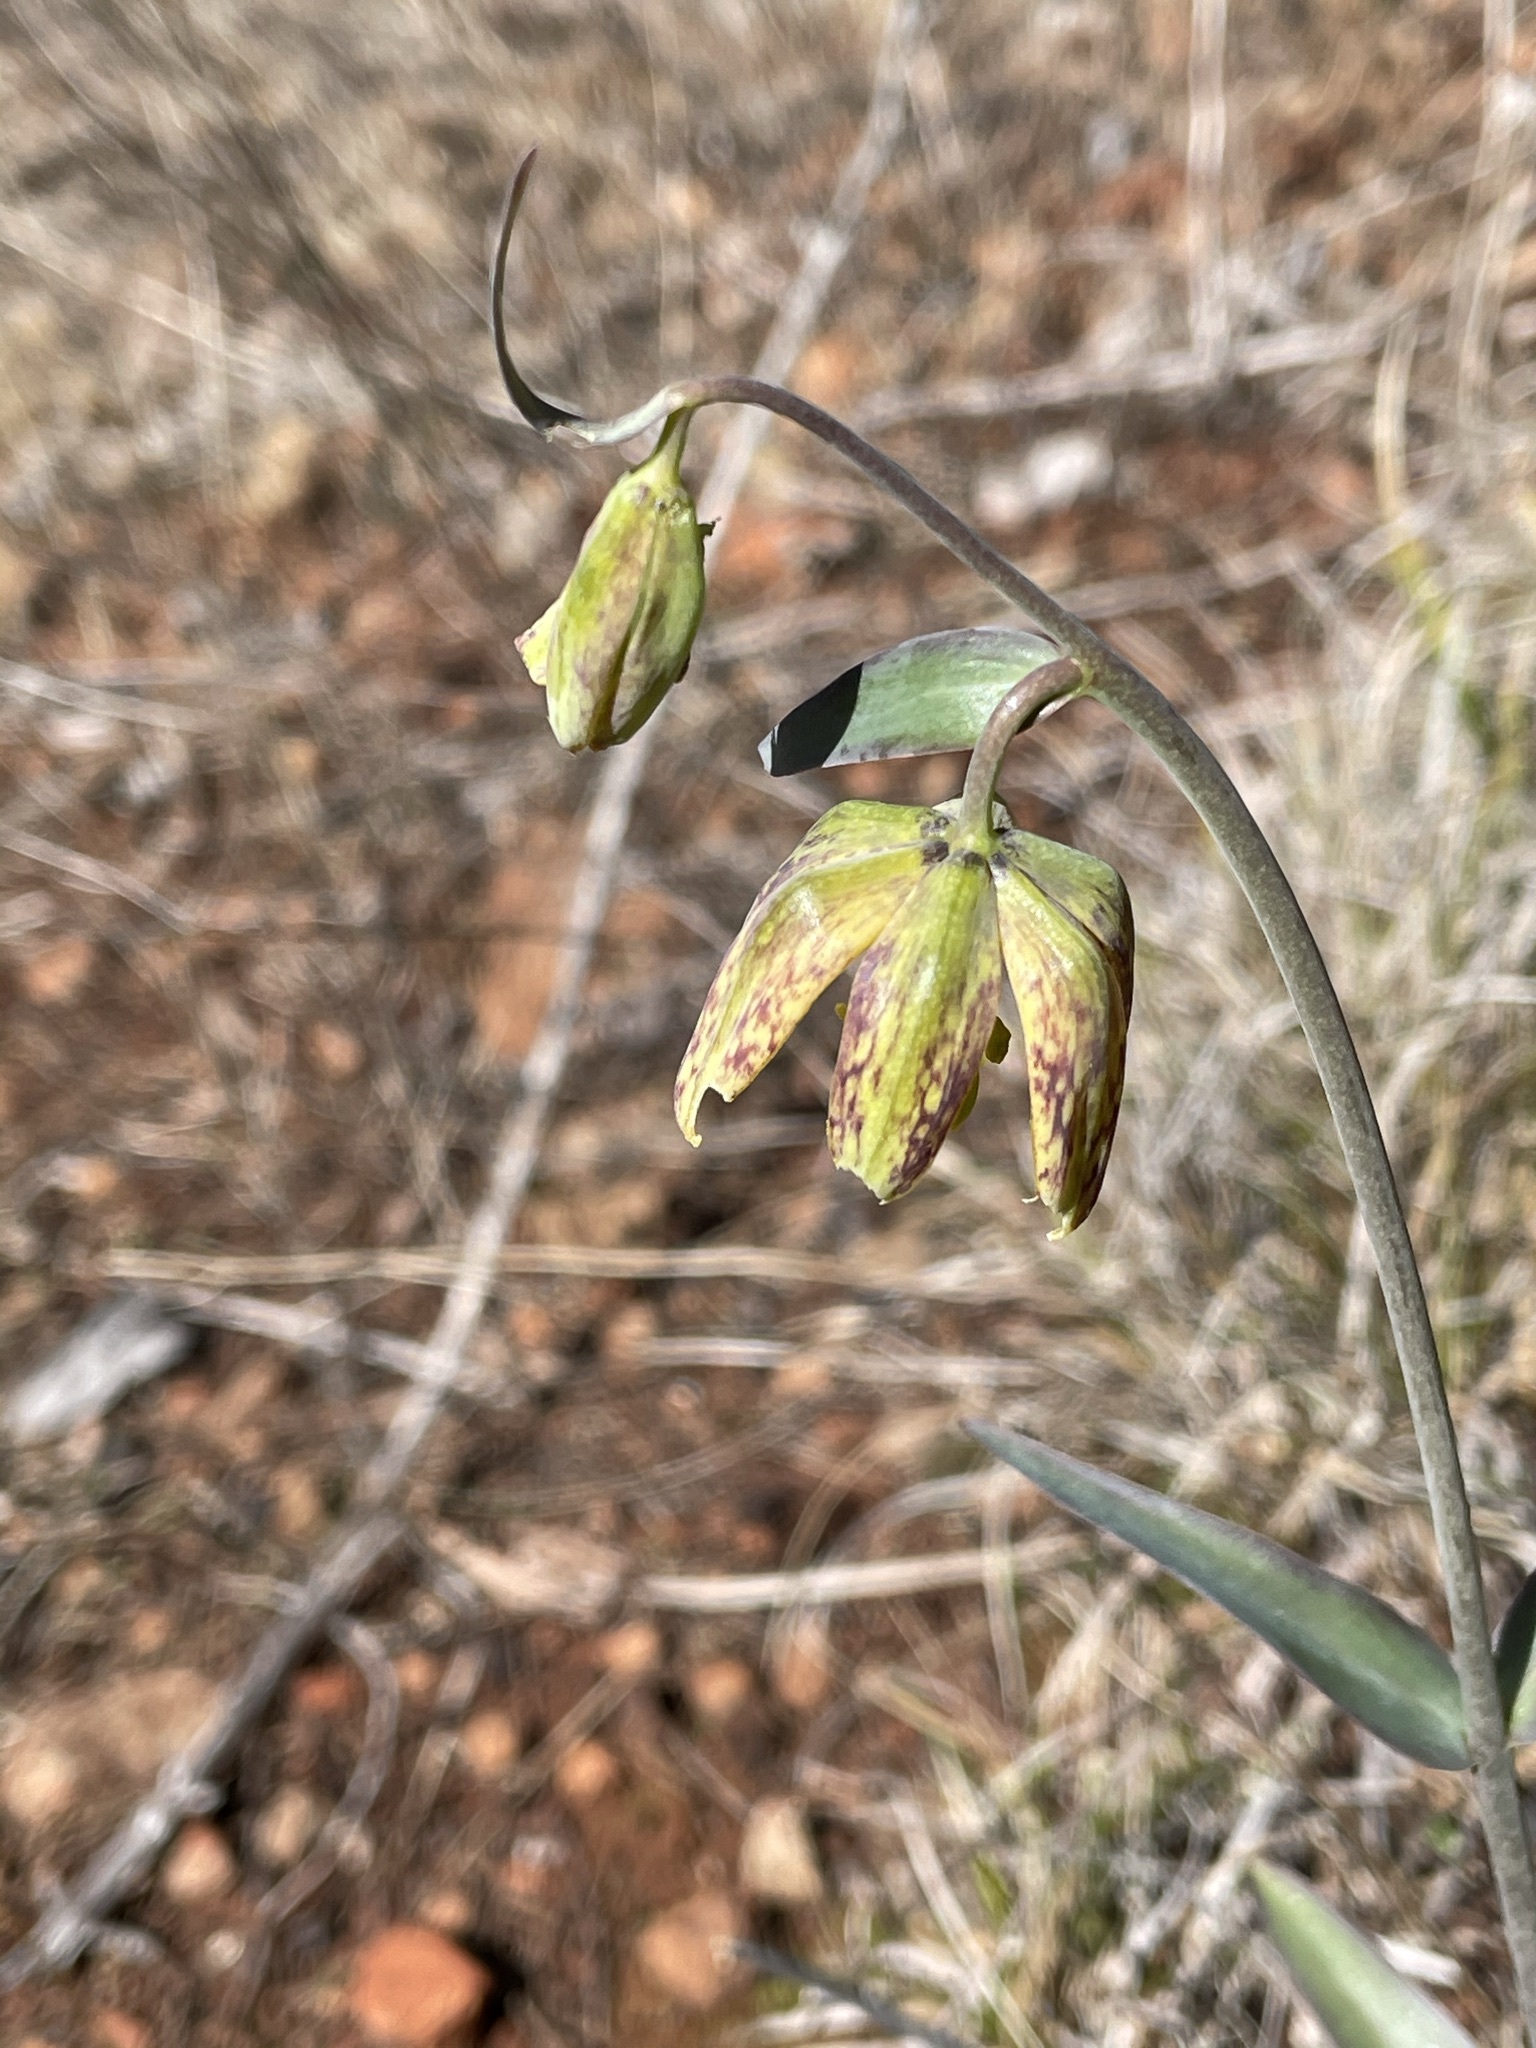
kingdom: Plantae
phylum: Tracheophyta
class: Liliopsida
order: Liliales
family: Liliaceae
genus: Fritillaria
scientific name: Fritillaria affinis
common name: Ojai fritillary
